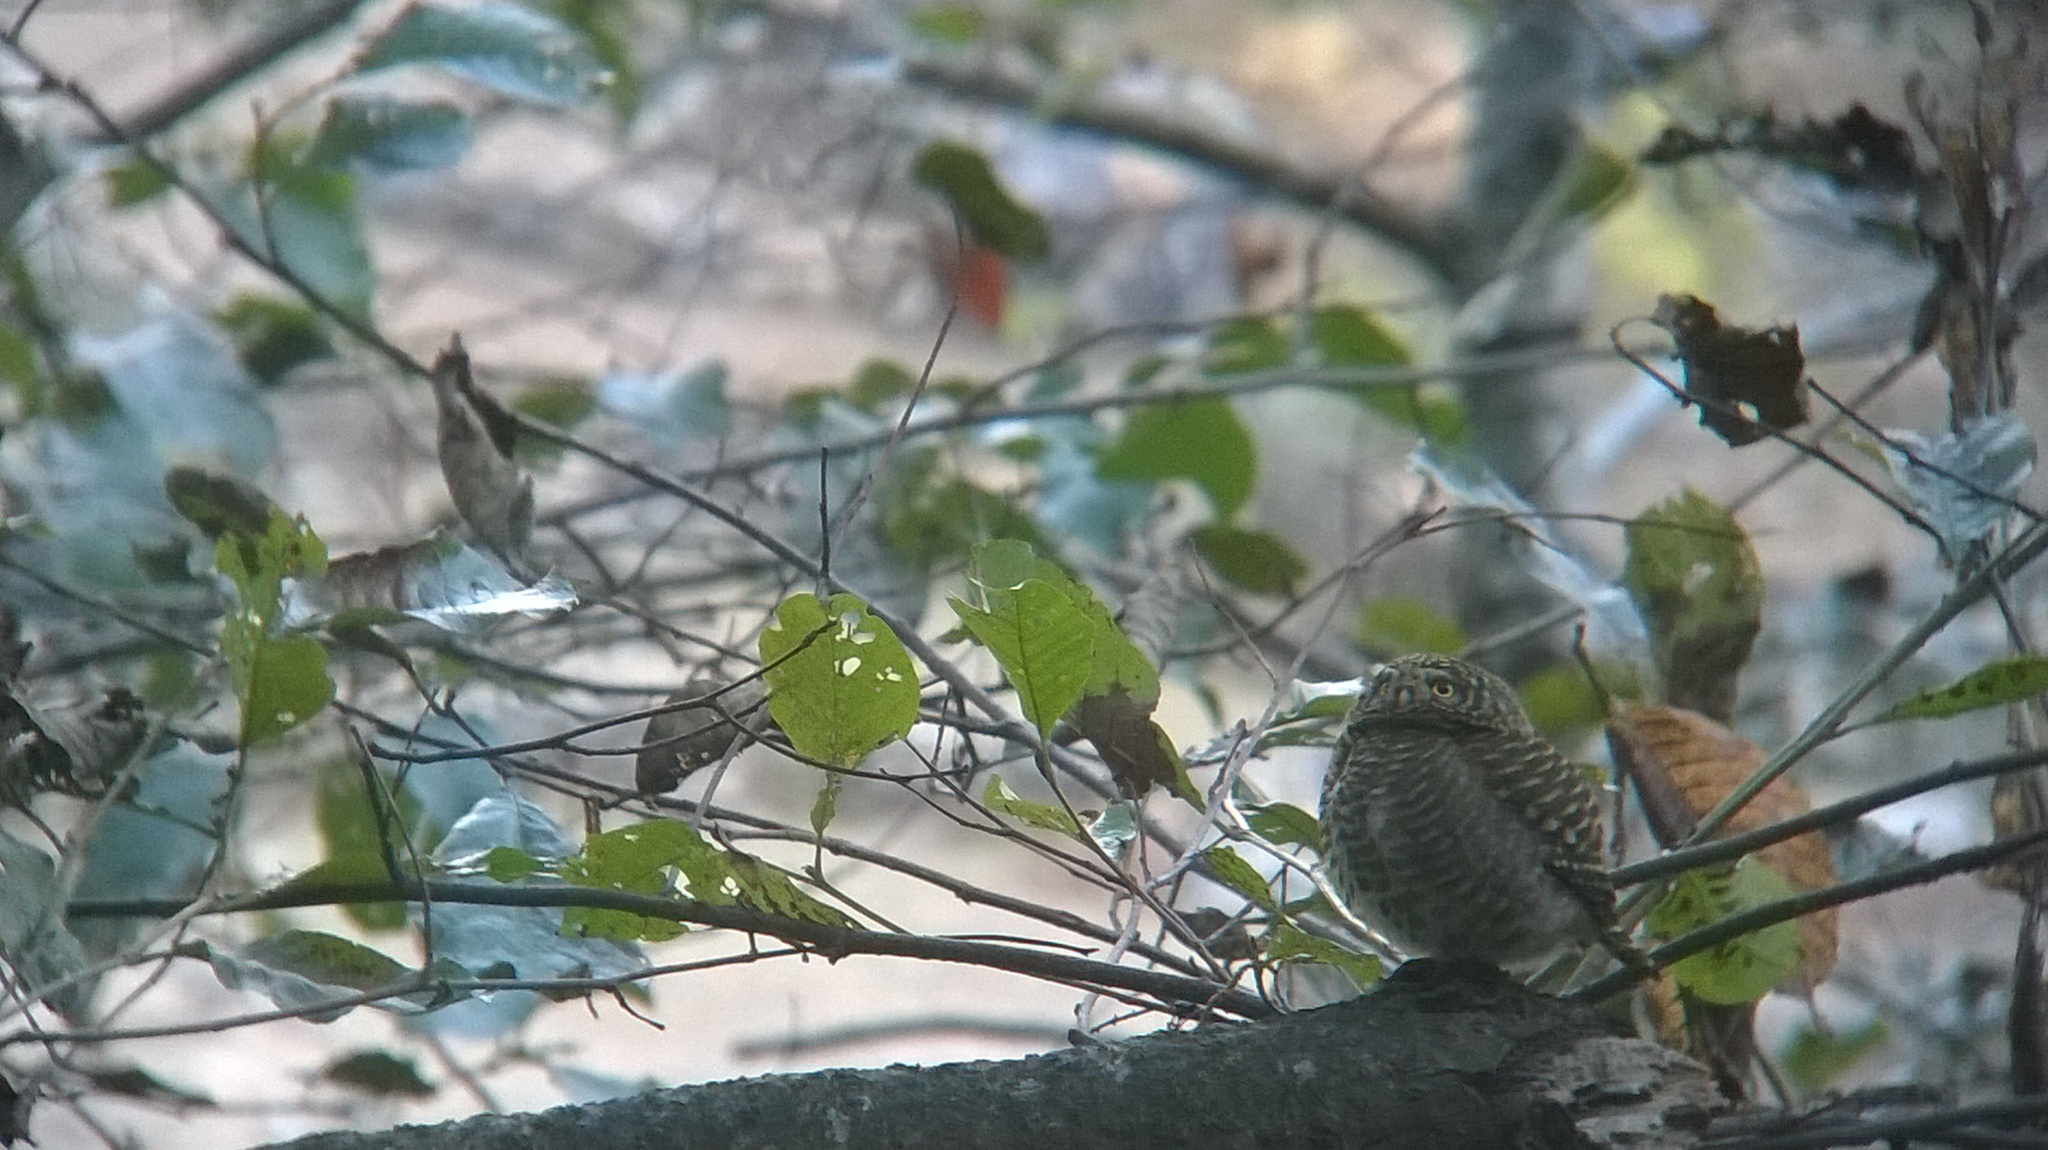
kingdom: Animalia
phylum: Chordata
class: Aves
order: Strigiformes
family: Strigidae
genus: Glaucidium
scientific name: Glaucidium brodiei
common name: Collared owlet
